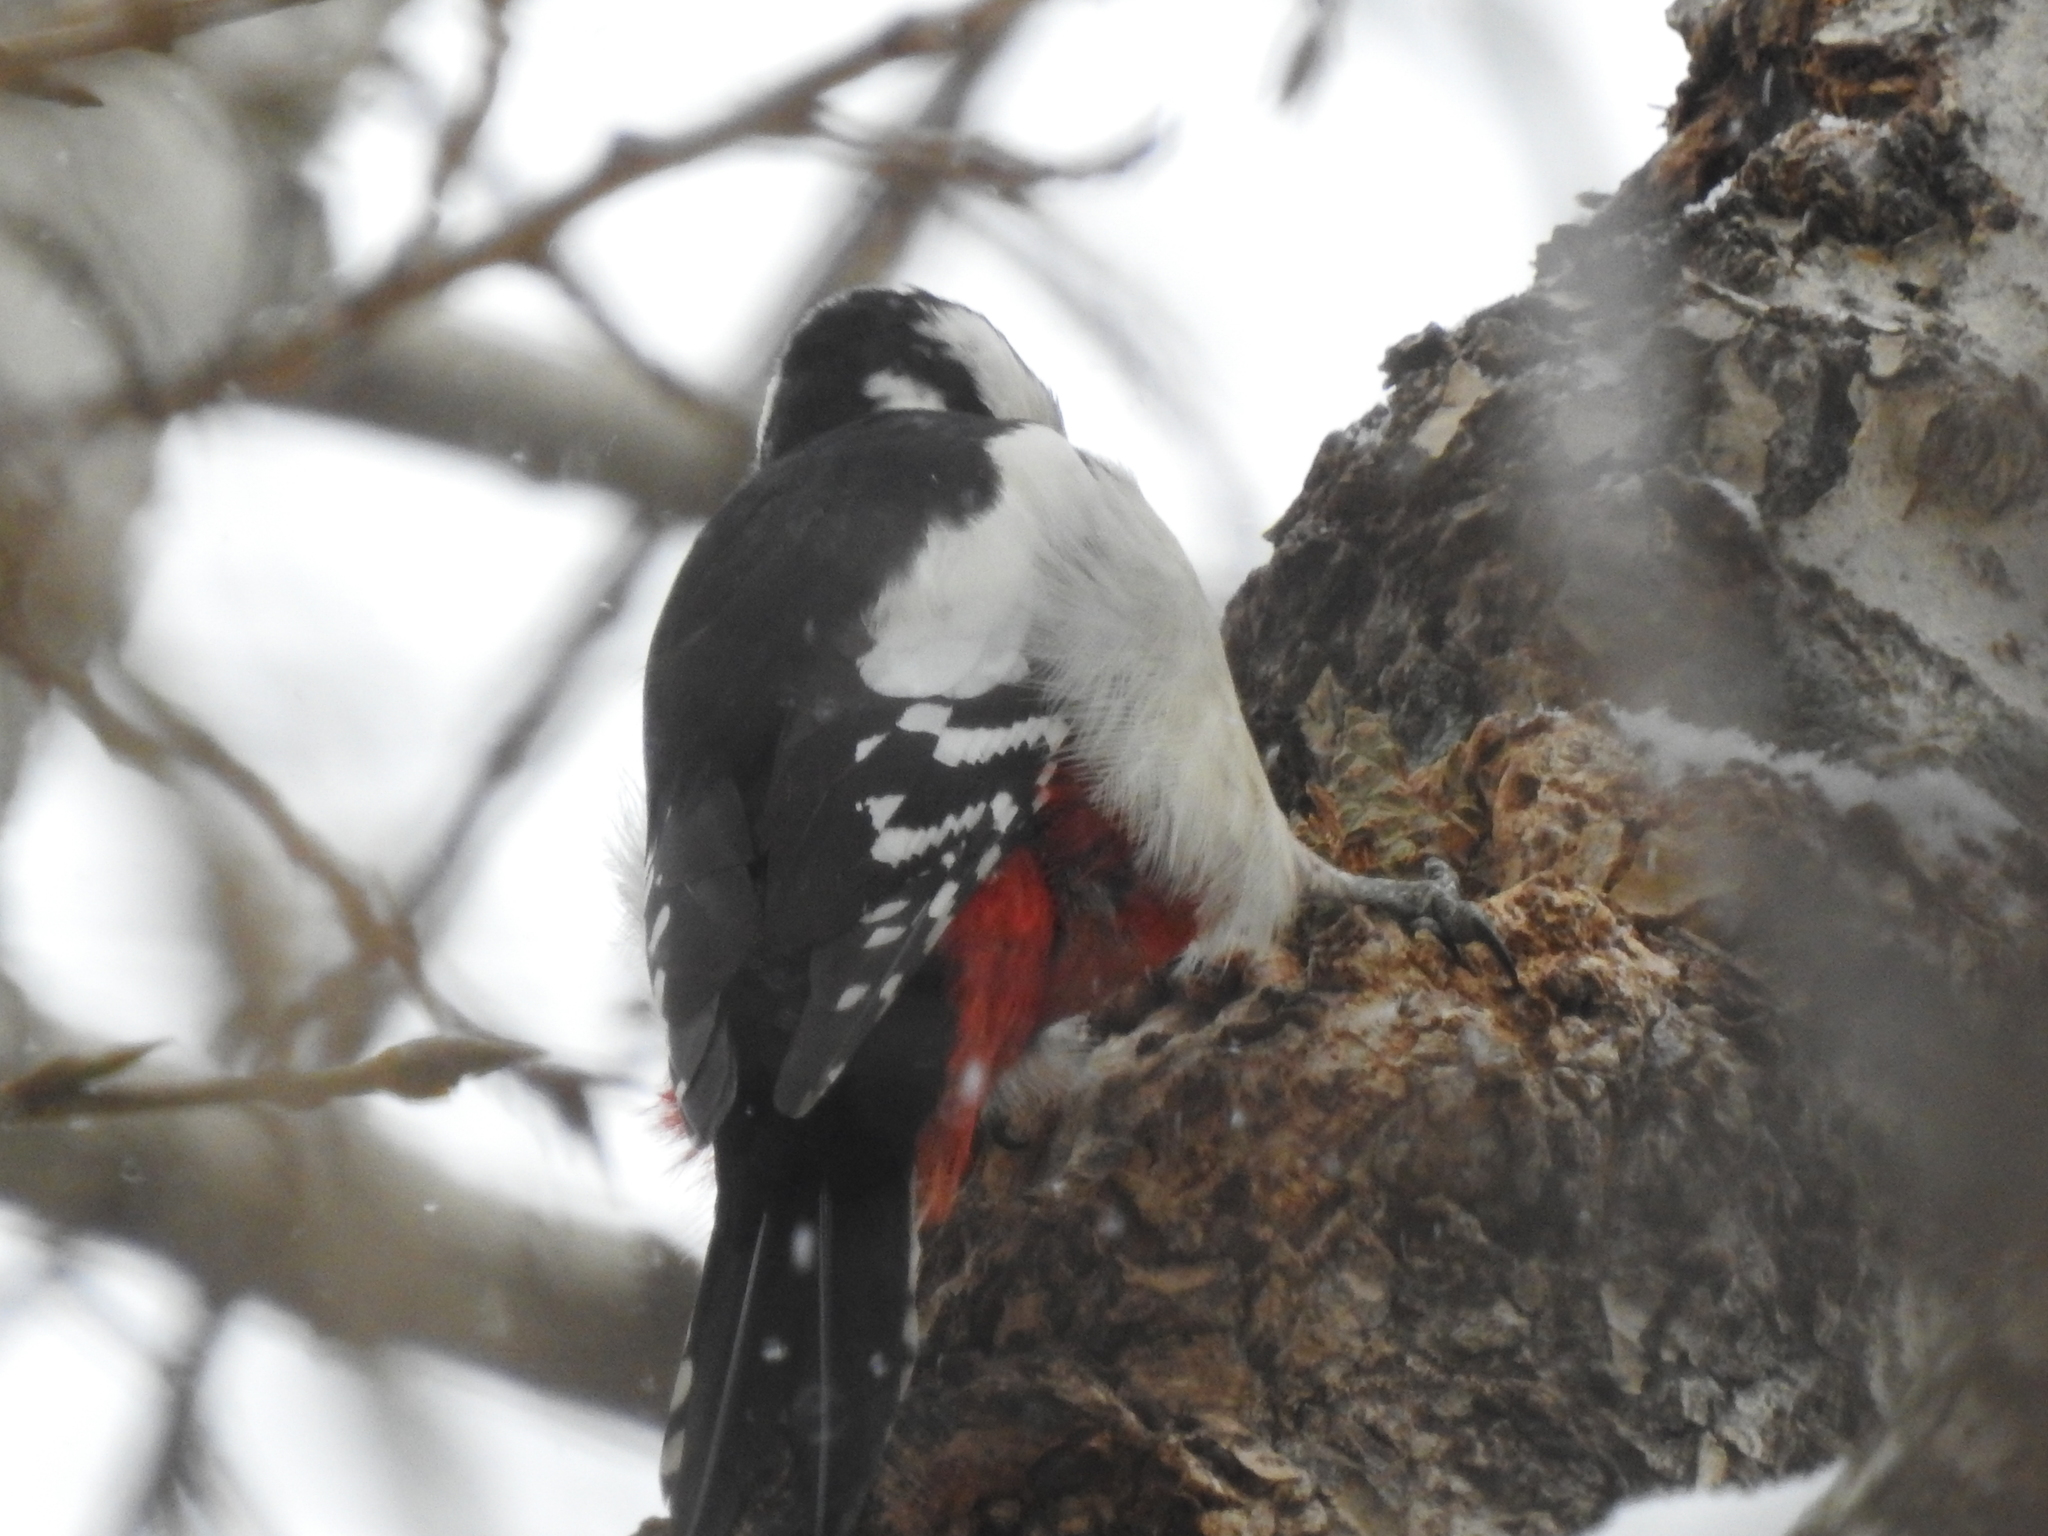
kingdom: Animalia
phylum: Chordata
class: Aves
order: Piciformes
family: Picidae
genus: Dendrocopos
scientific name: Dendrocopos major
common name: Great spotted woodpecker
